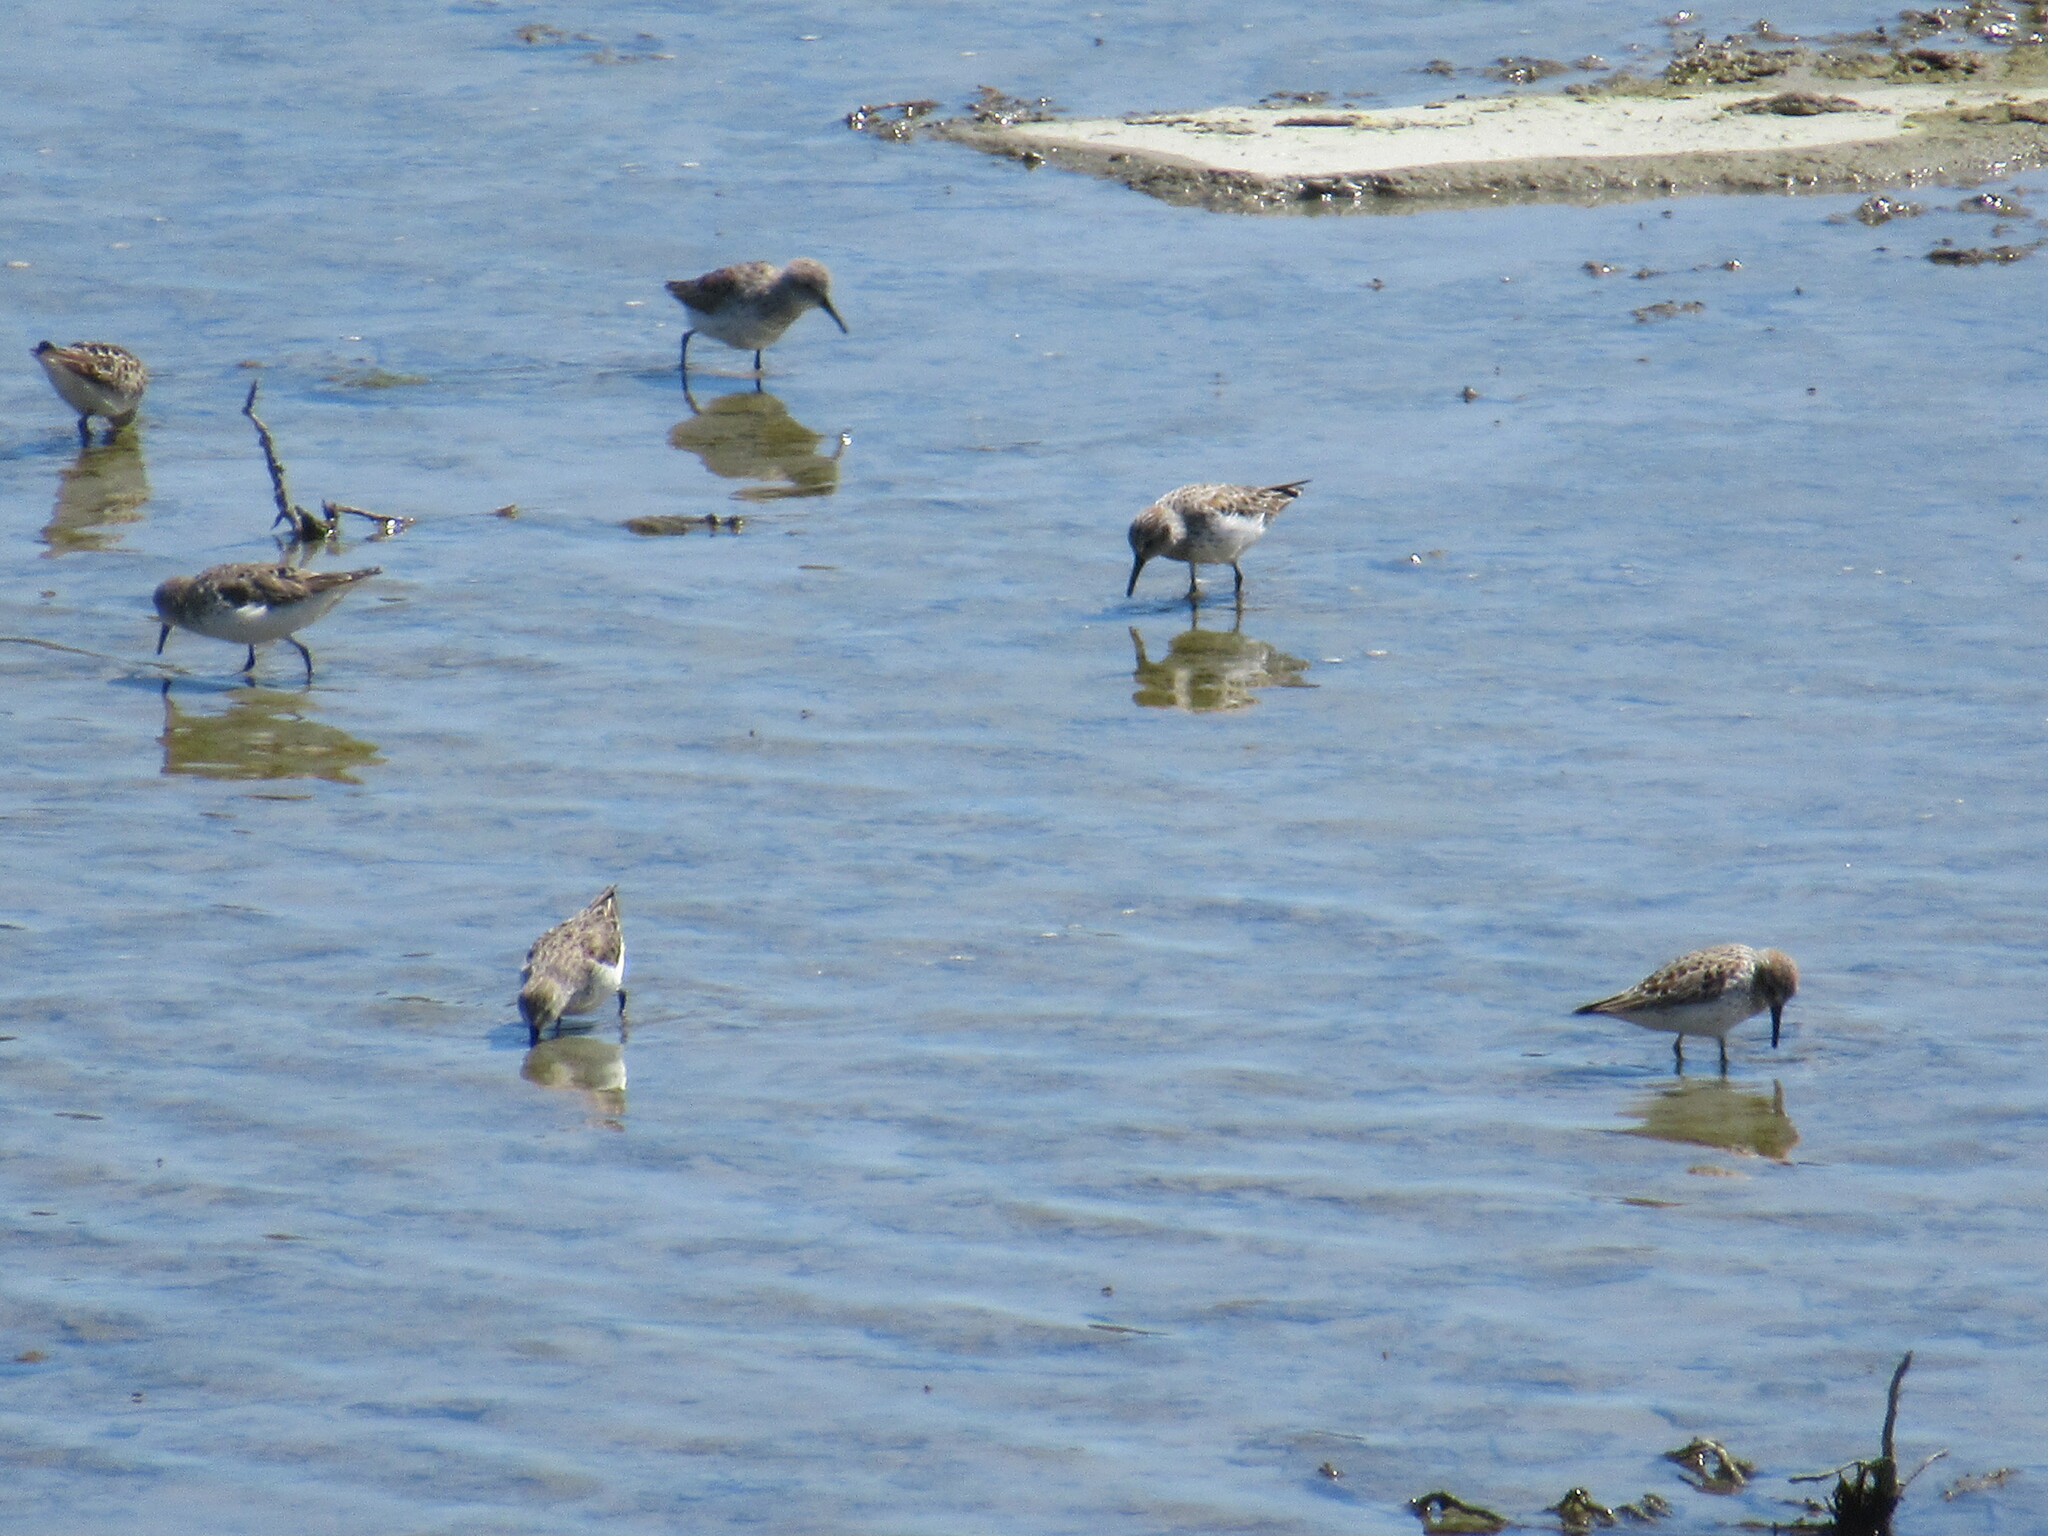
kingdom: Animalia
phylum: Chordata
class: Aves
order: Charadriiformes
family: Scolopacidae
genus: Calidris
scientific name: Calidris mauri
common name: Western sandpiper
